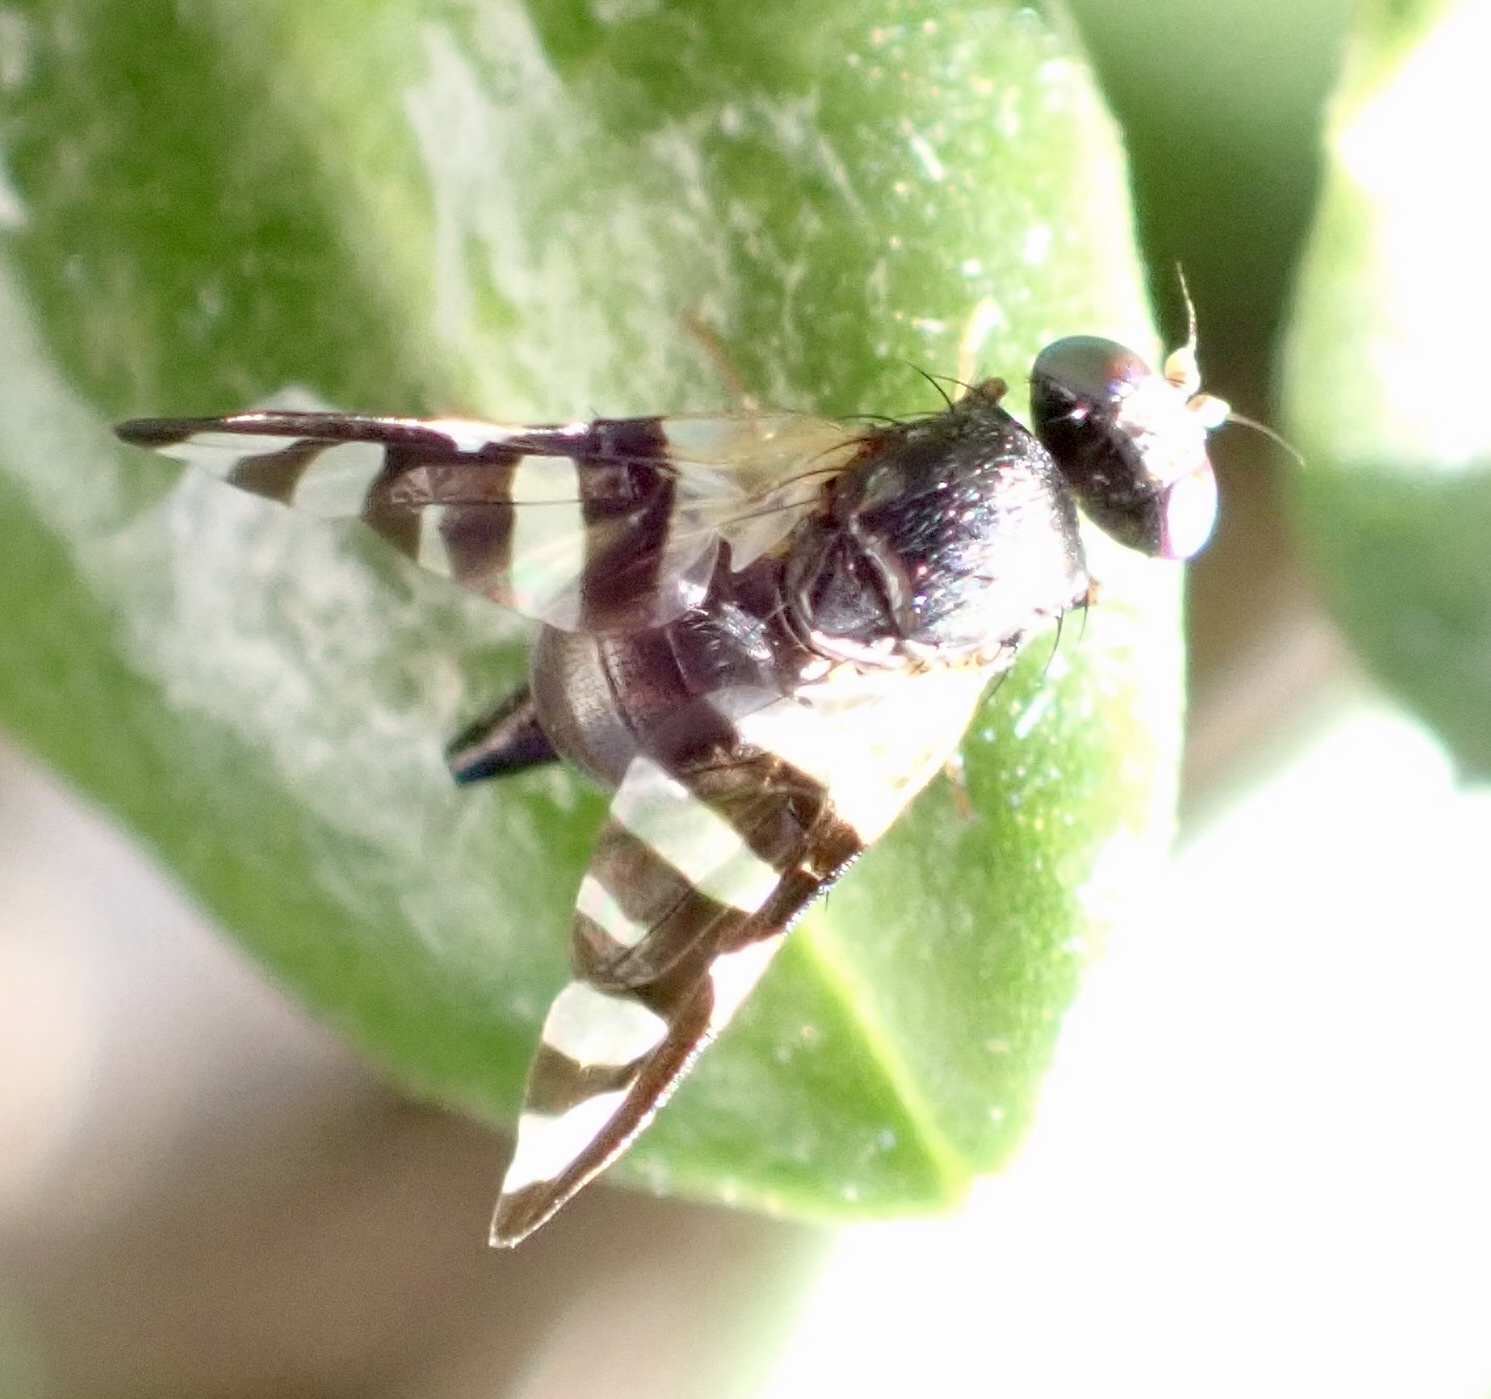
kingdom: Animalia
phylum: Arthropoda
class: Insecta
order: Diptera
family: Tephritidae
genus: Sphaeniscus
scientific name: Sphaeniscus sexmaculatus
